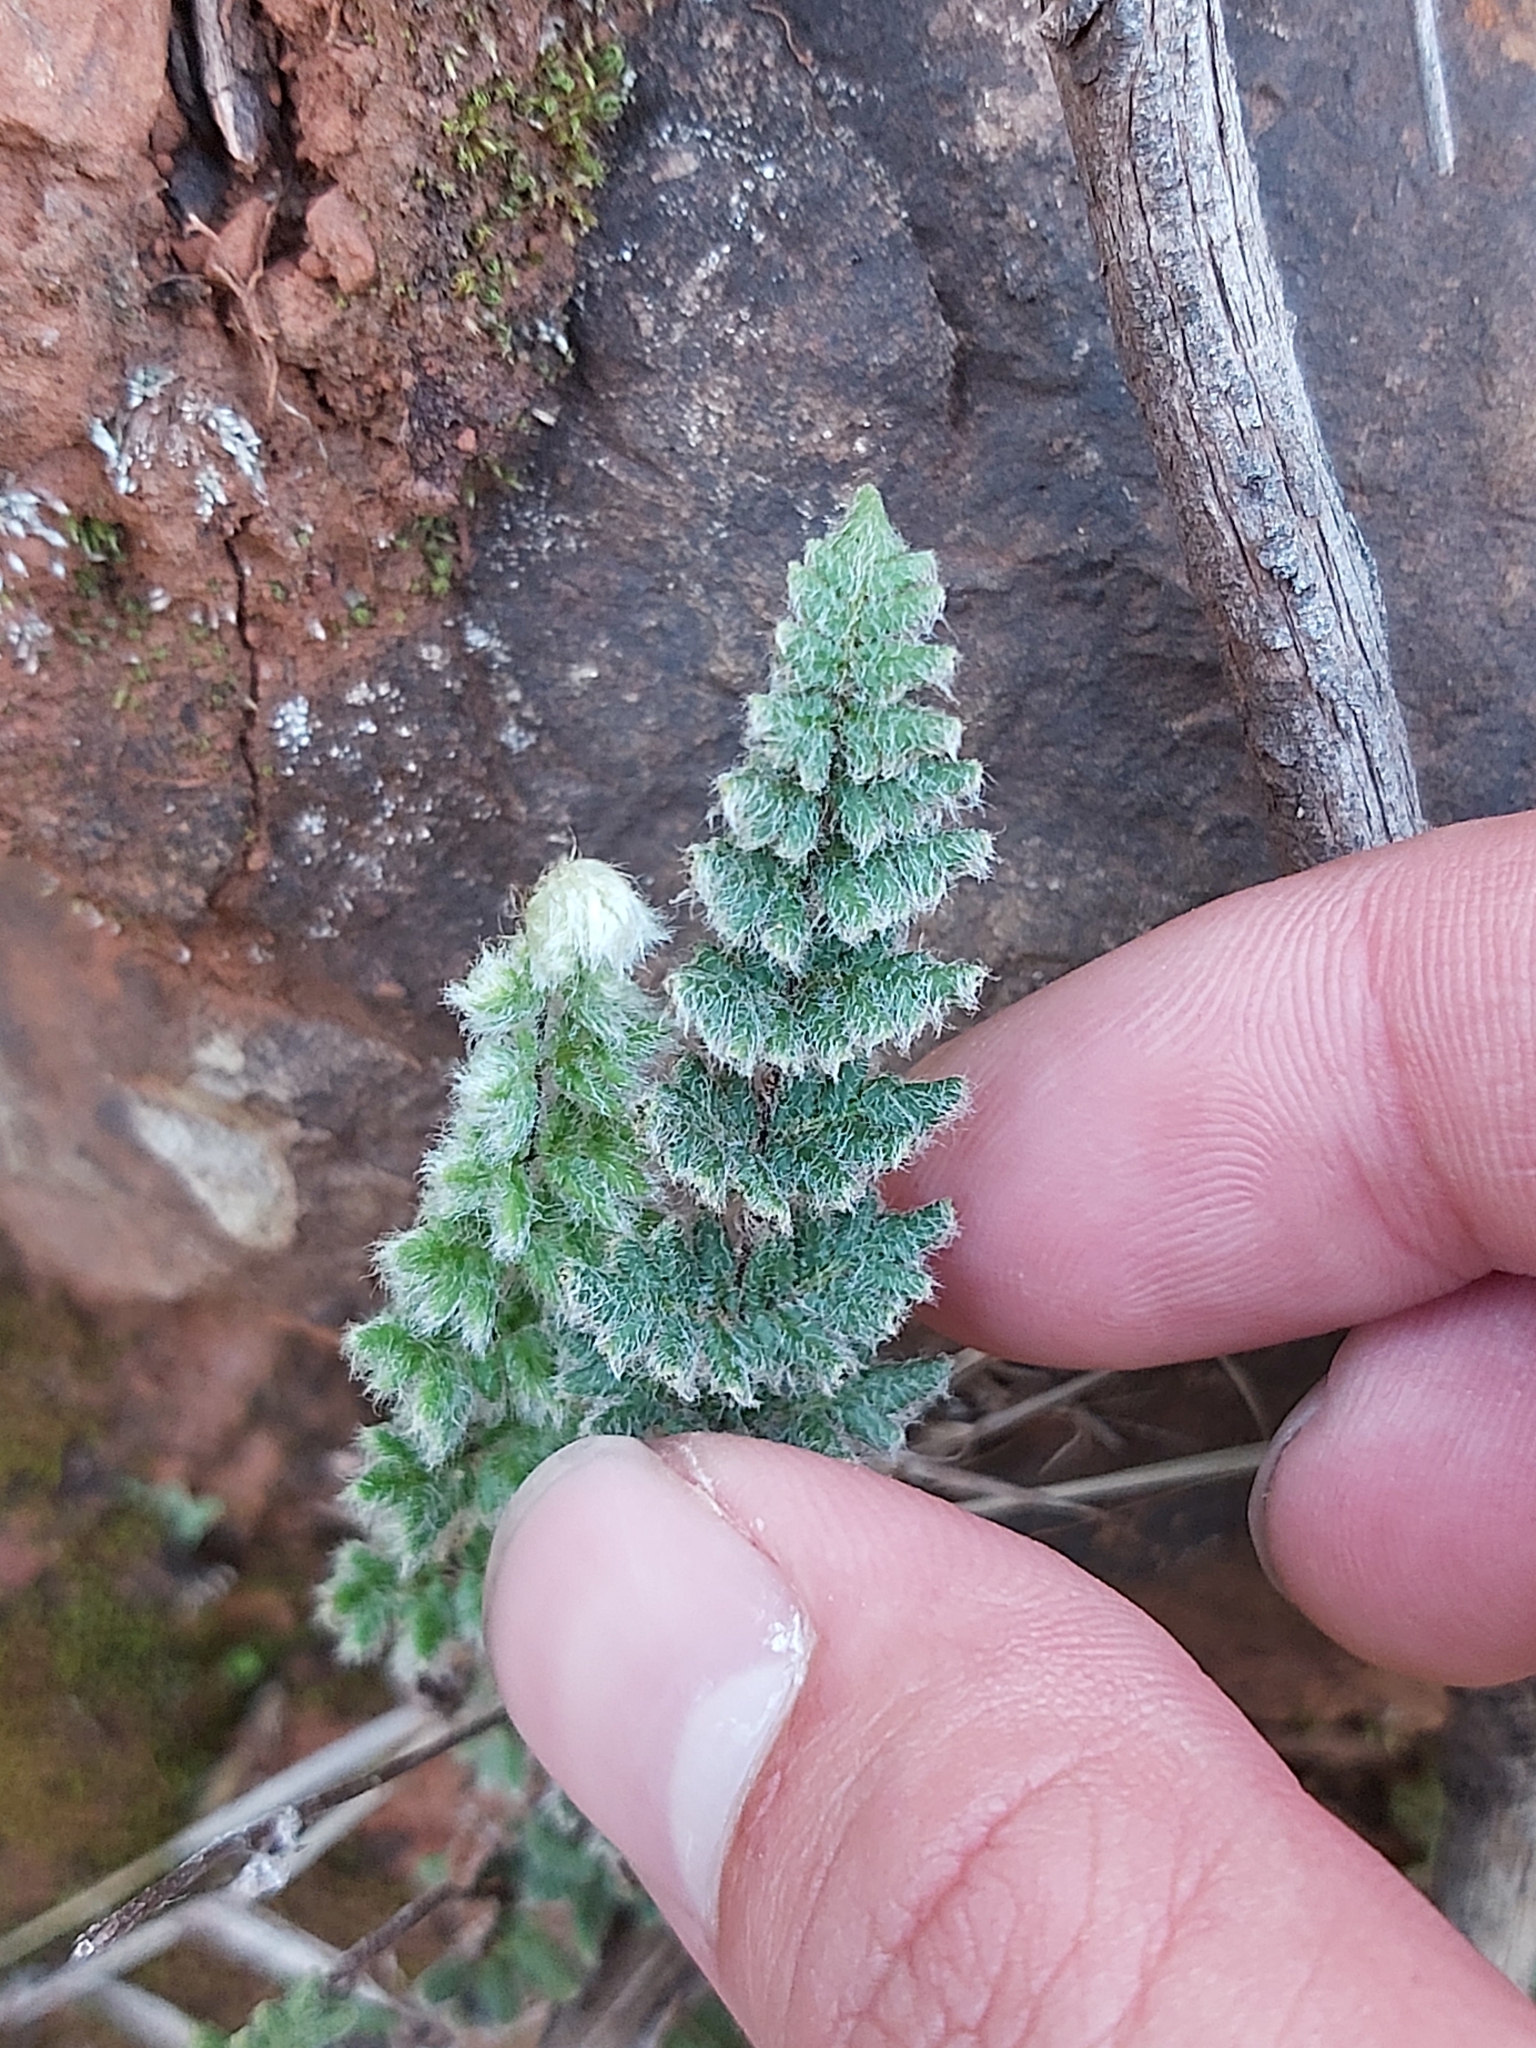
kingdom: Plantae
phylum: Tracheophyta
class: Polypodiopsida
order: Polypodiales
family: Pteridaceae
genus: Cheilanthes
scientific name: Cheilanthes distans
